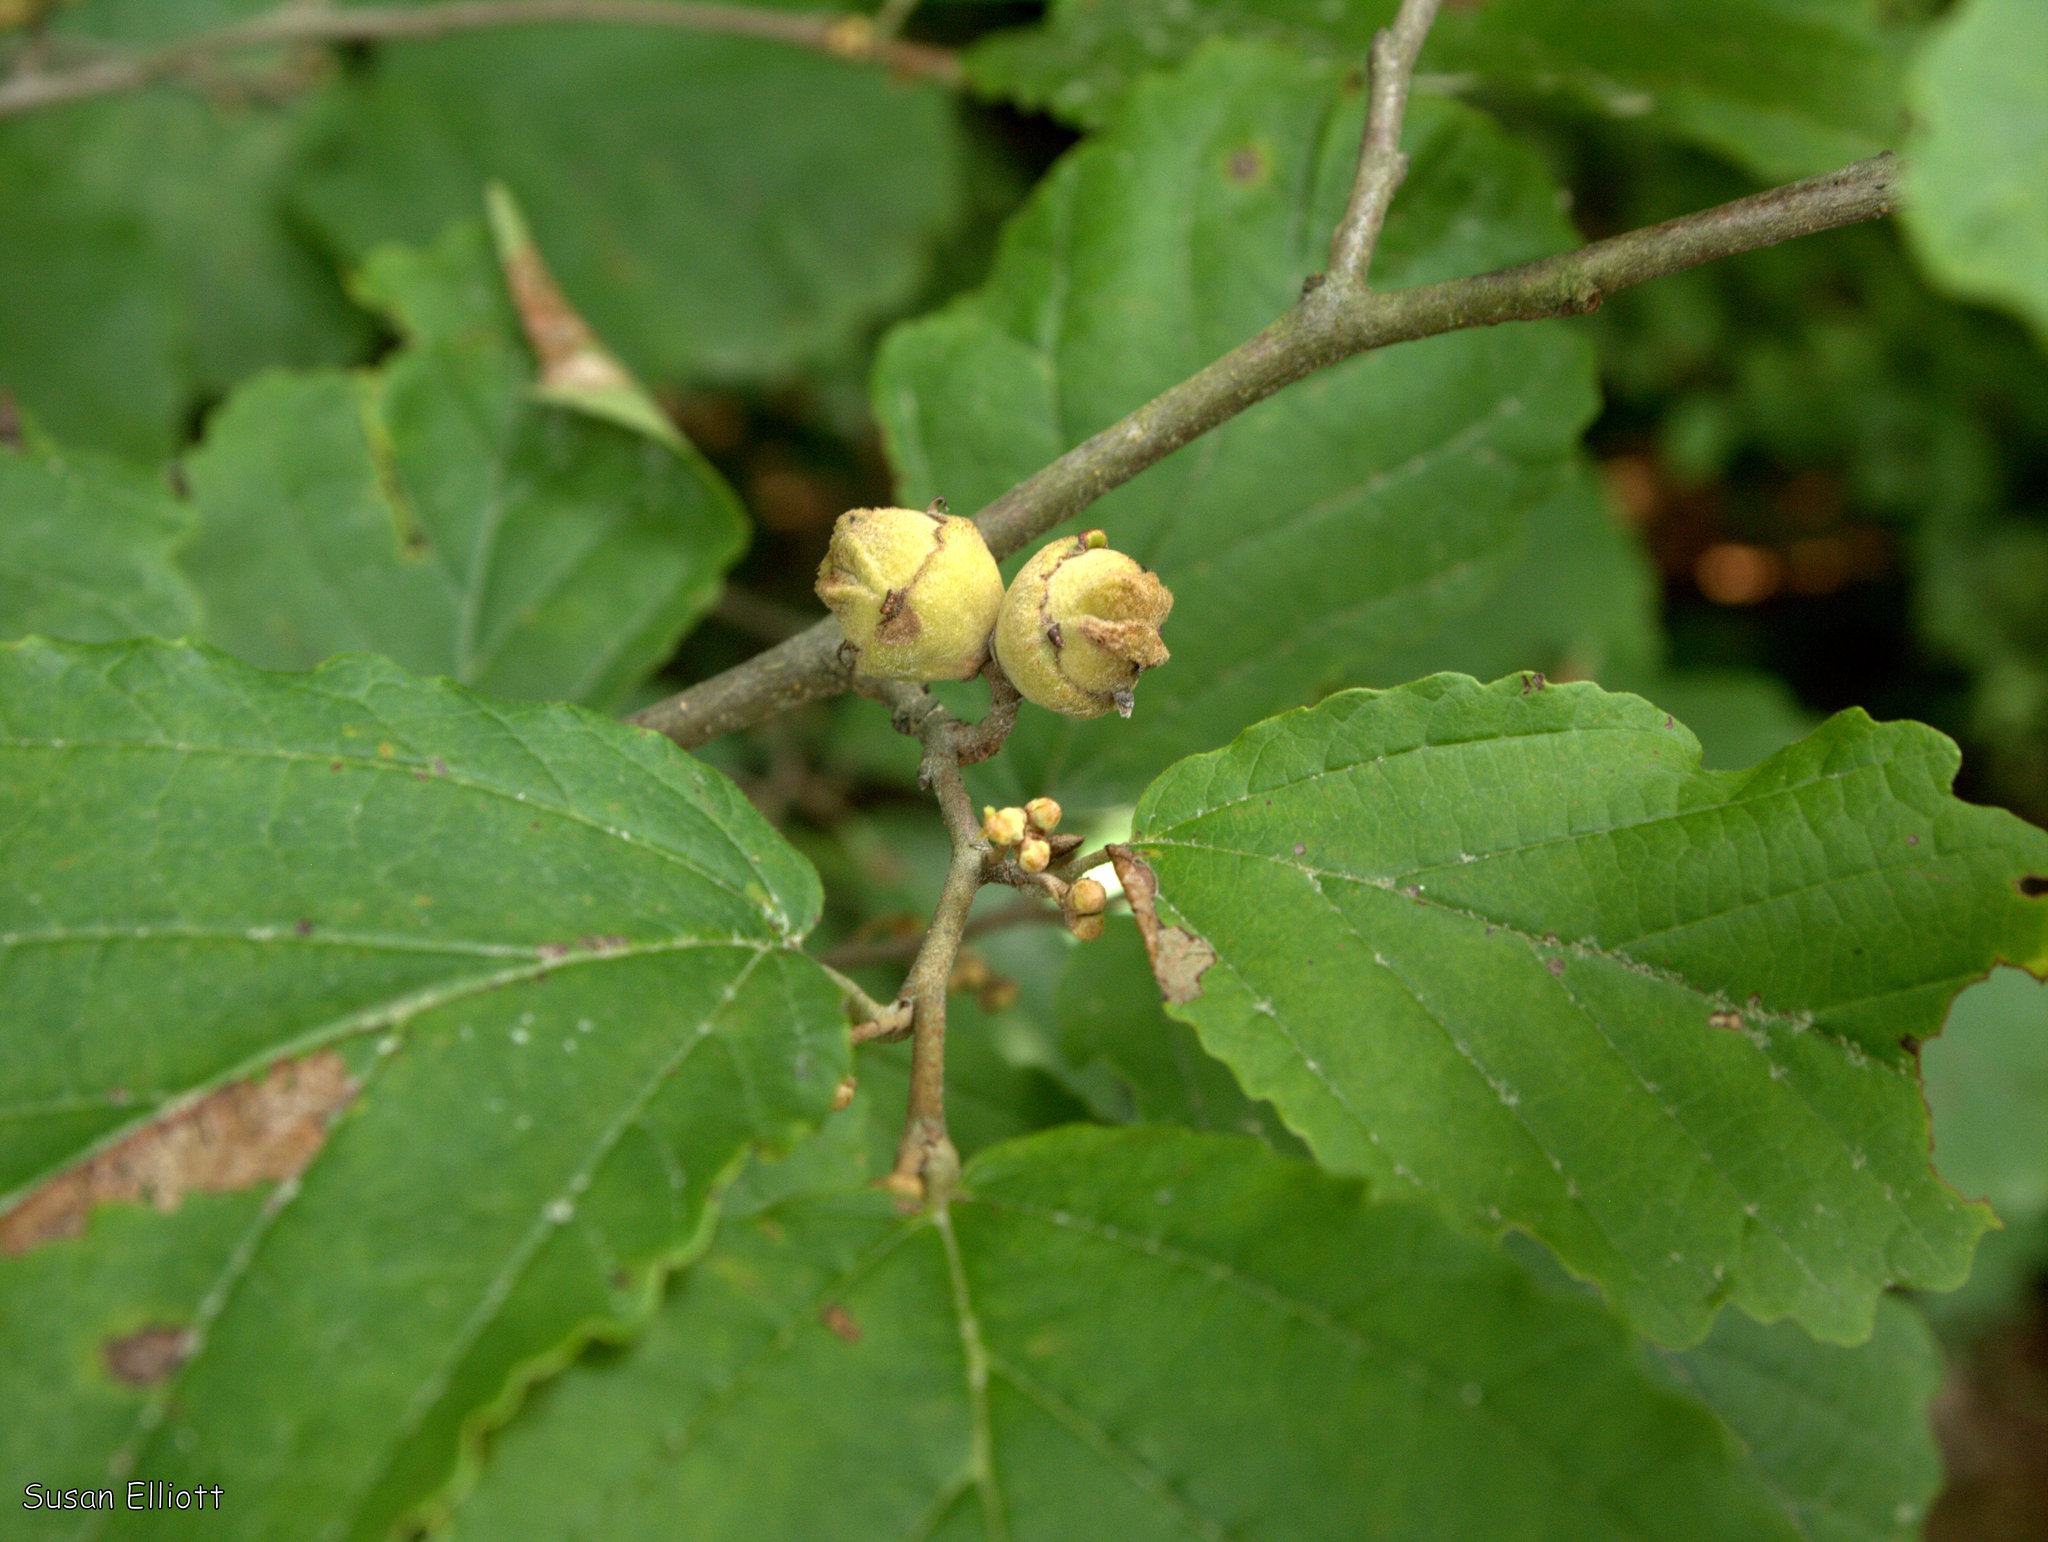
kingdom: Plantae
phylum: Tracheophyta
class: Magnoliopsida
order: Saxifragales
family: Hamamelidaceae
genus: Hamamelis
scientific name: Hamamelis virginiana
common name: Witch-hazel
